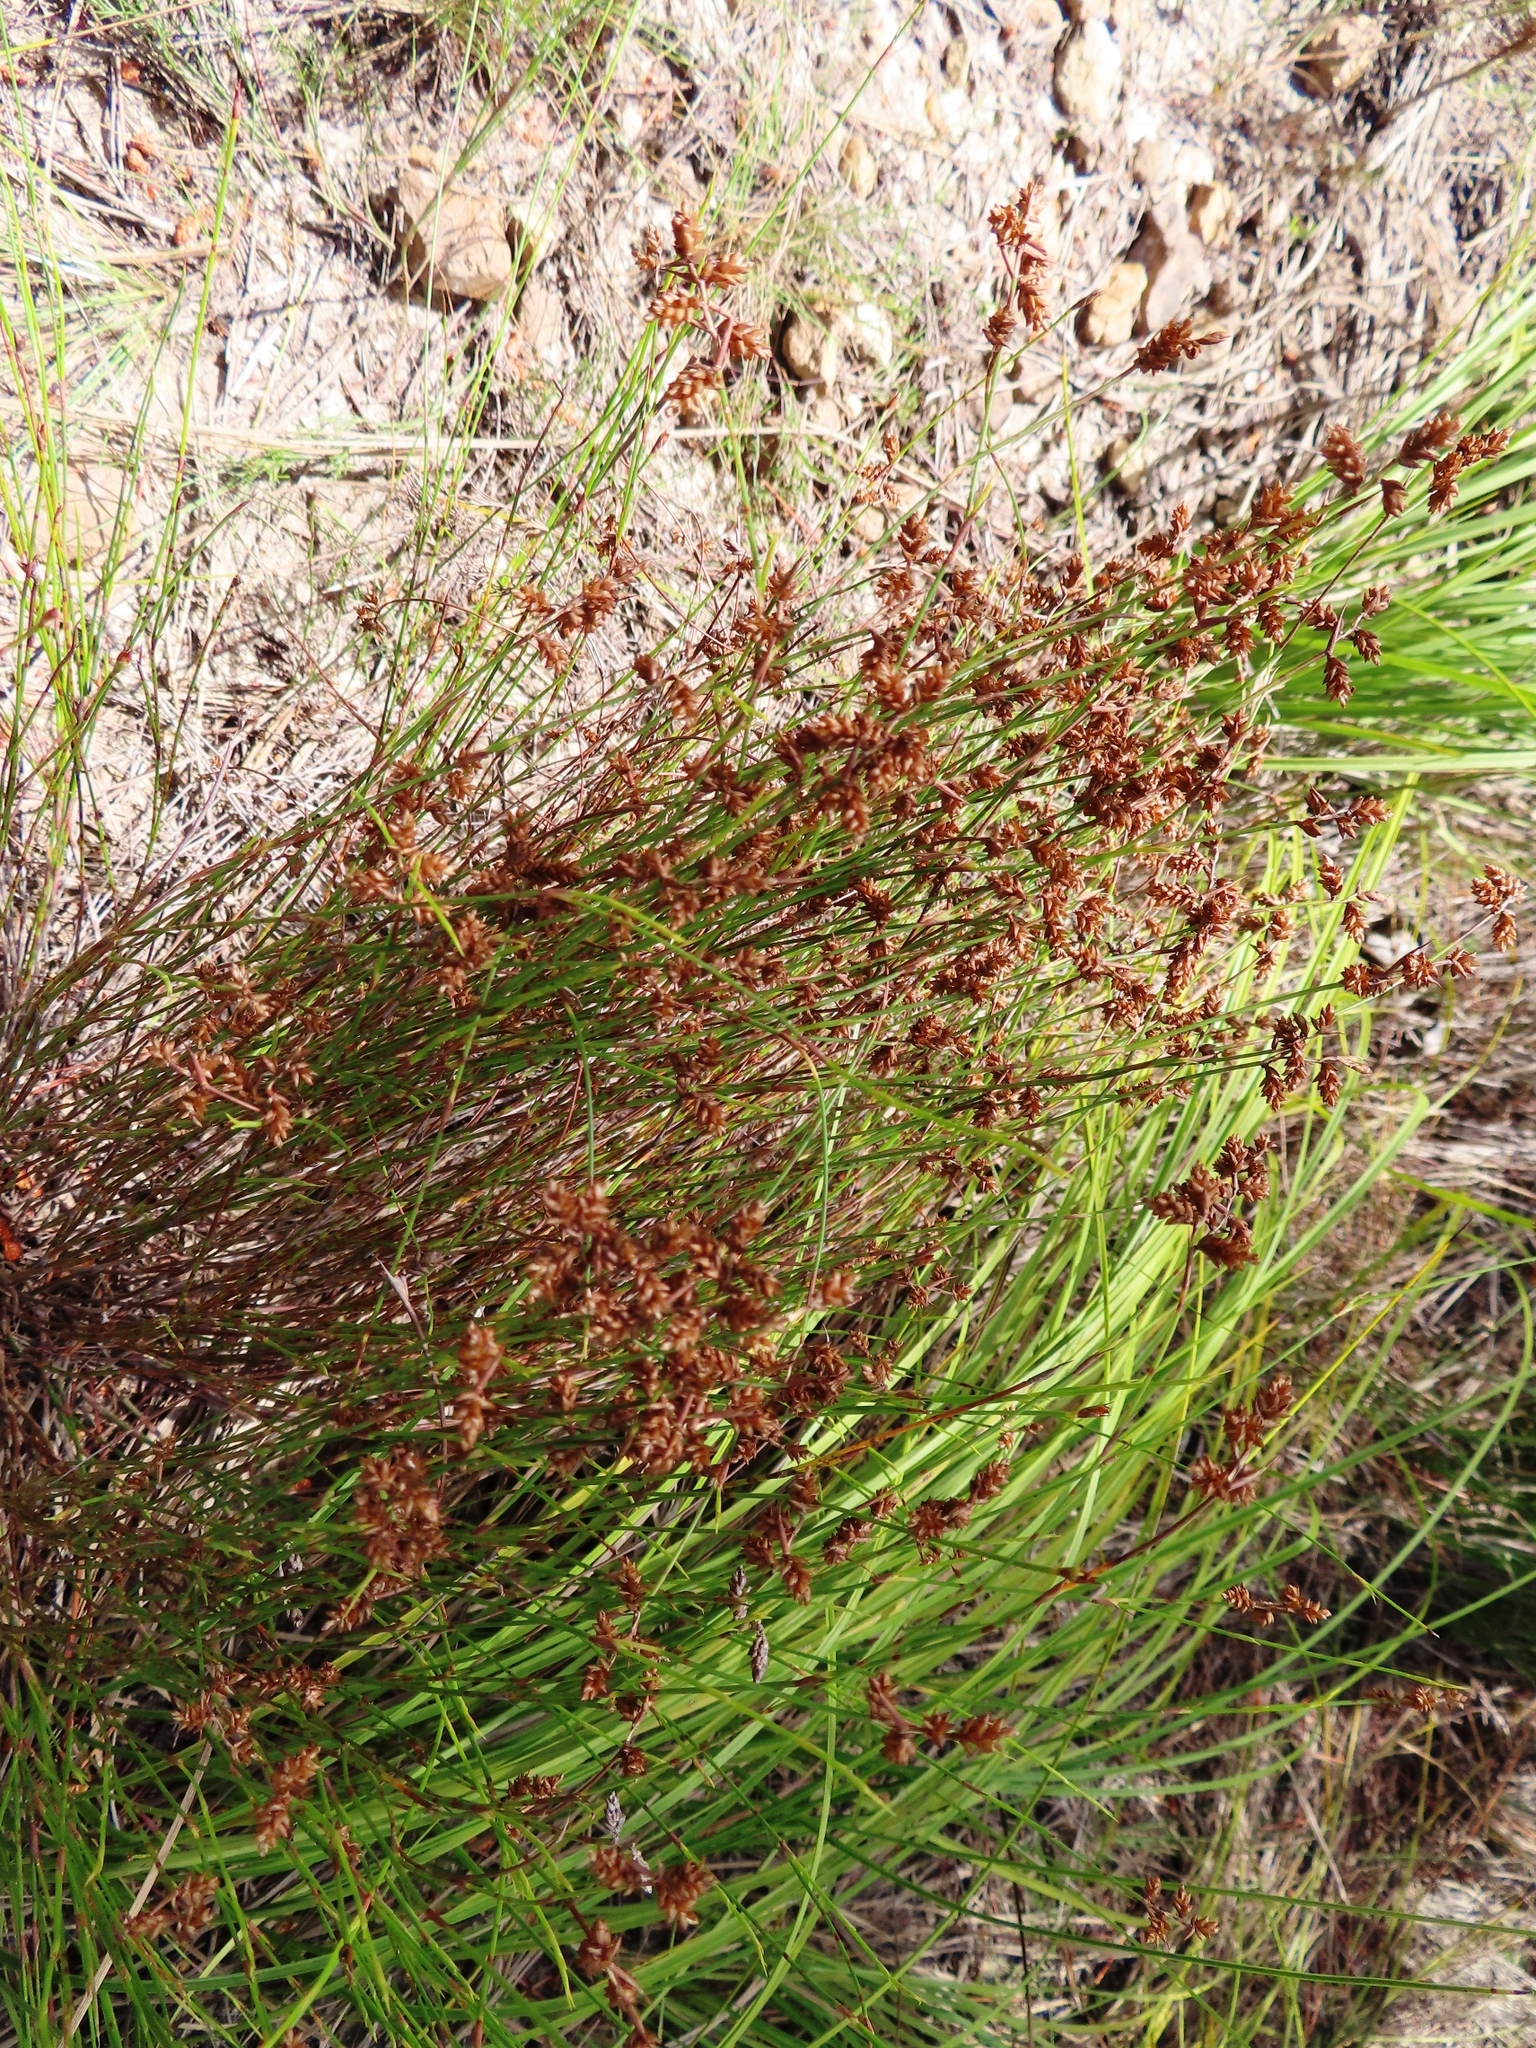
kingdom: Plantae
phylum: Tracheophyta
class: Liliopsida
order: Poales
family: Restionaceae
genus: Mastersiella
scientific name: Mastersiella digitata
